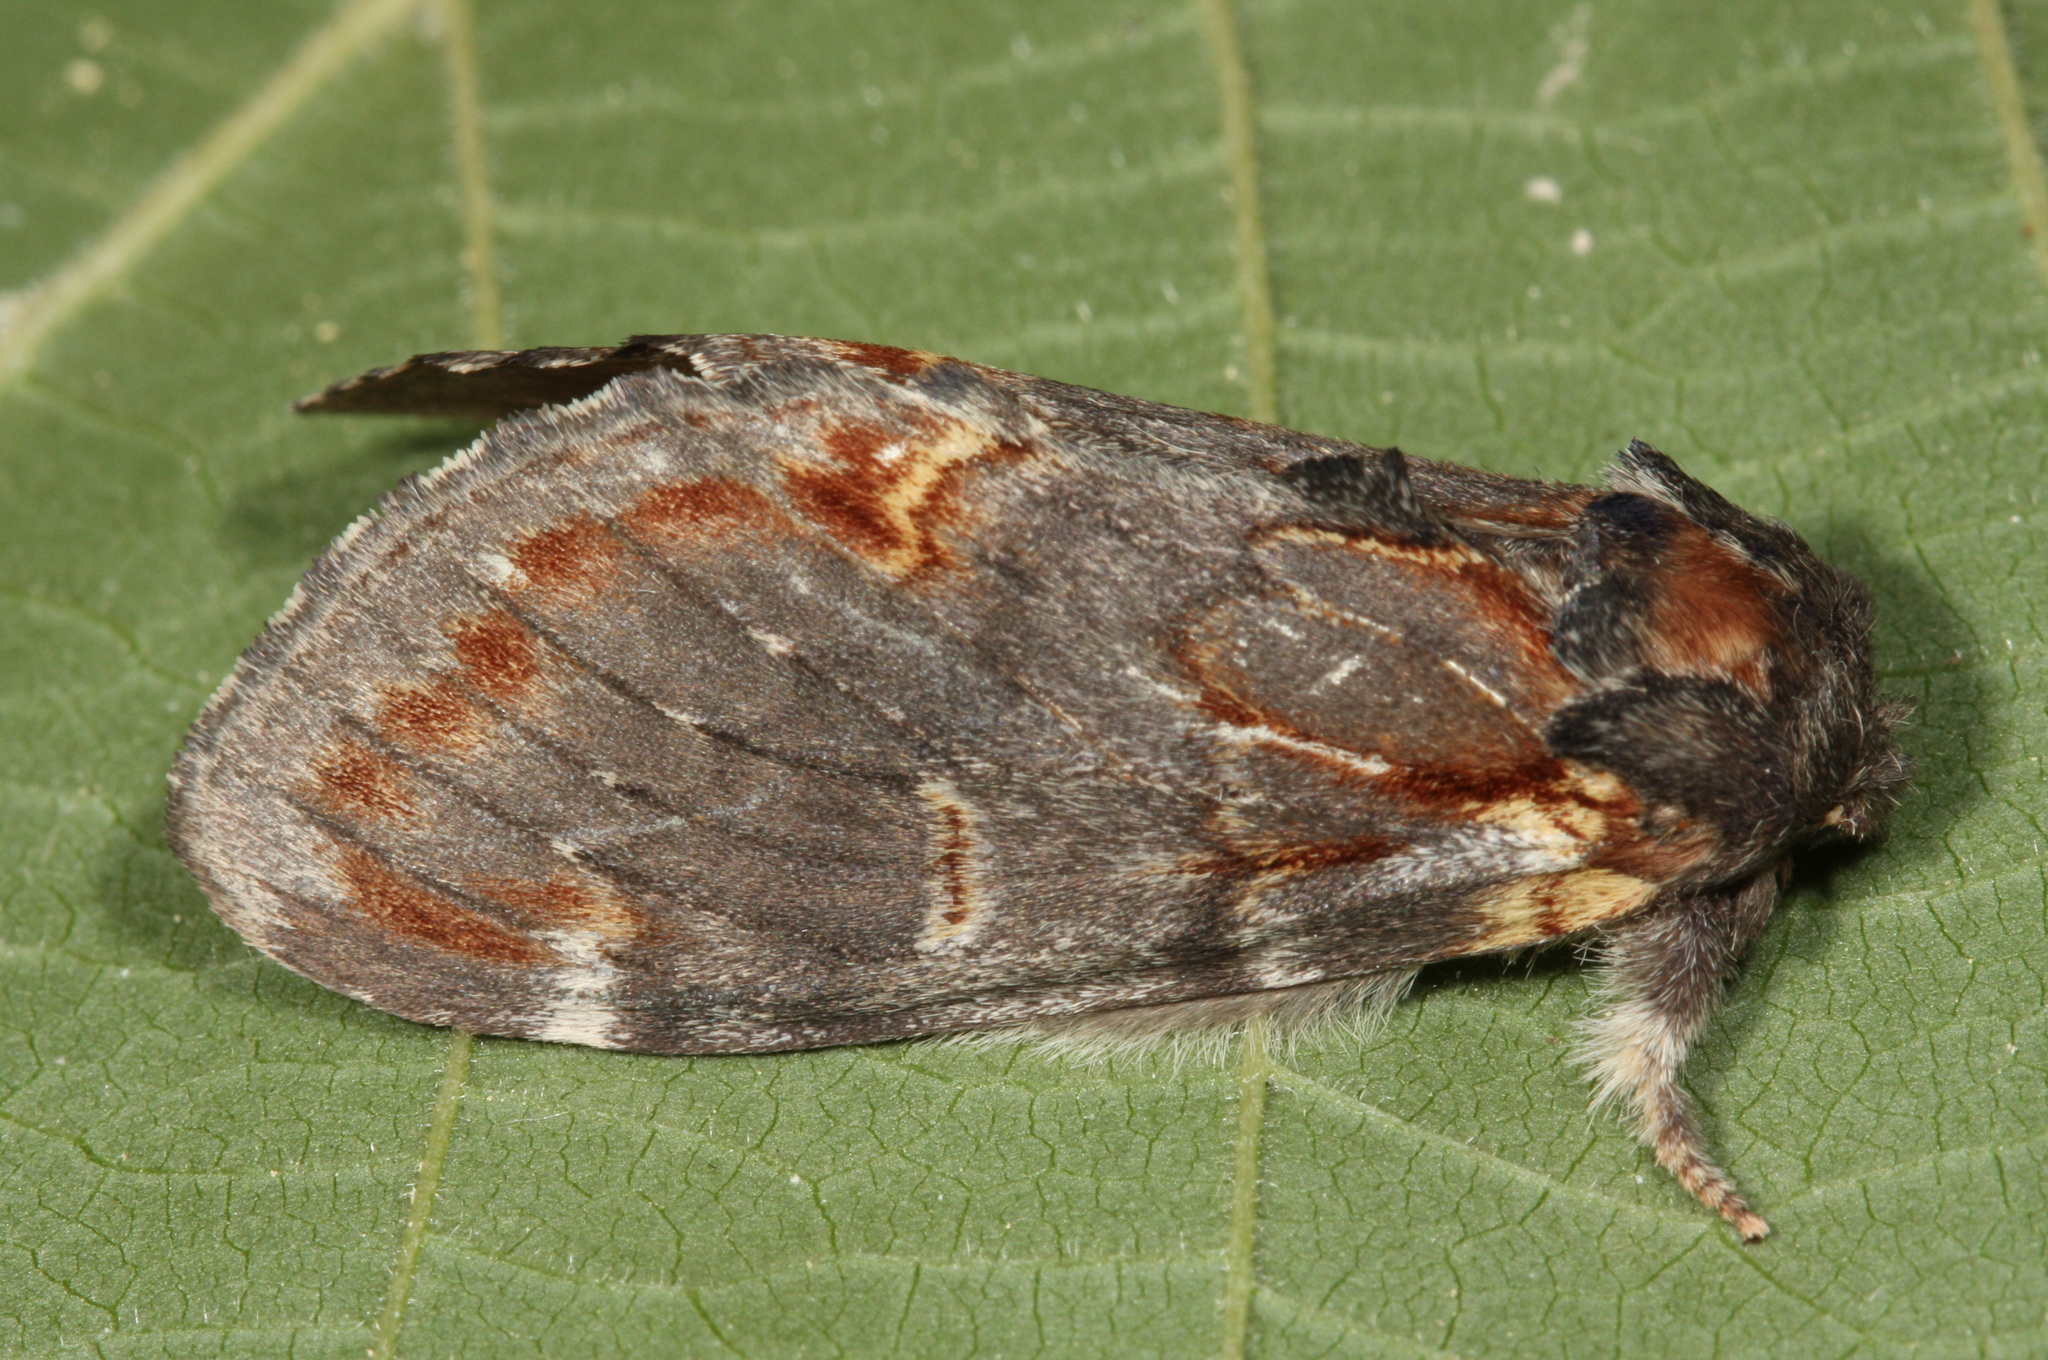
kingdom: Animalia
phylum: Arthropoda
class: Insecta
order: Lepidoptera
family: Notodontidae
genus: Notodonta
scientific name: Notodonta dromedarius
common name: Iron prominent
